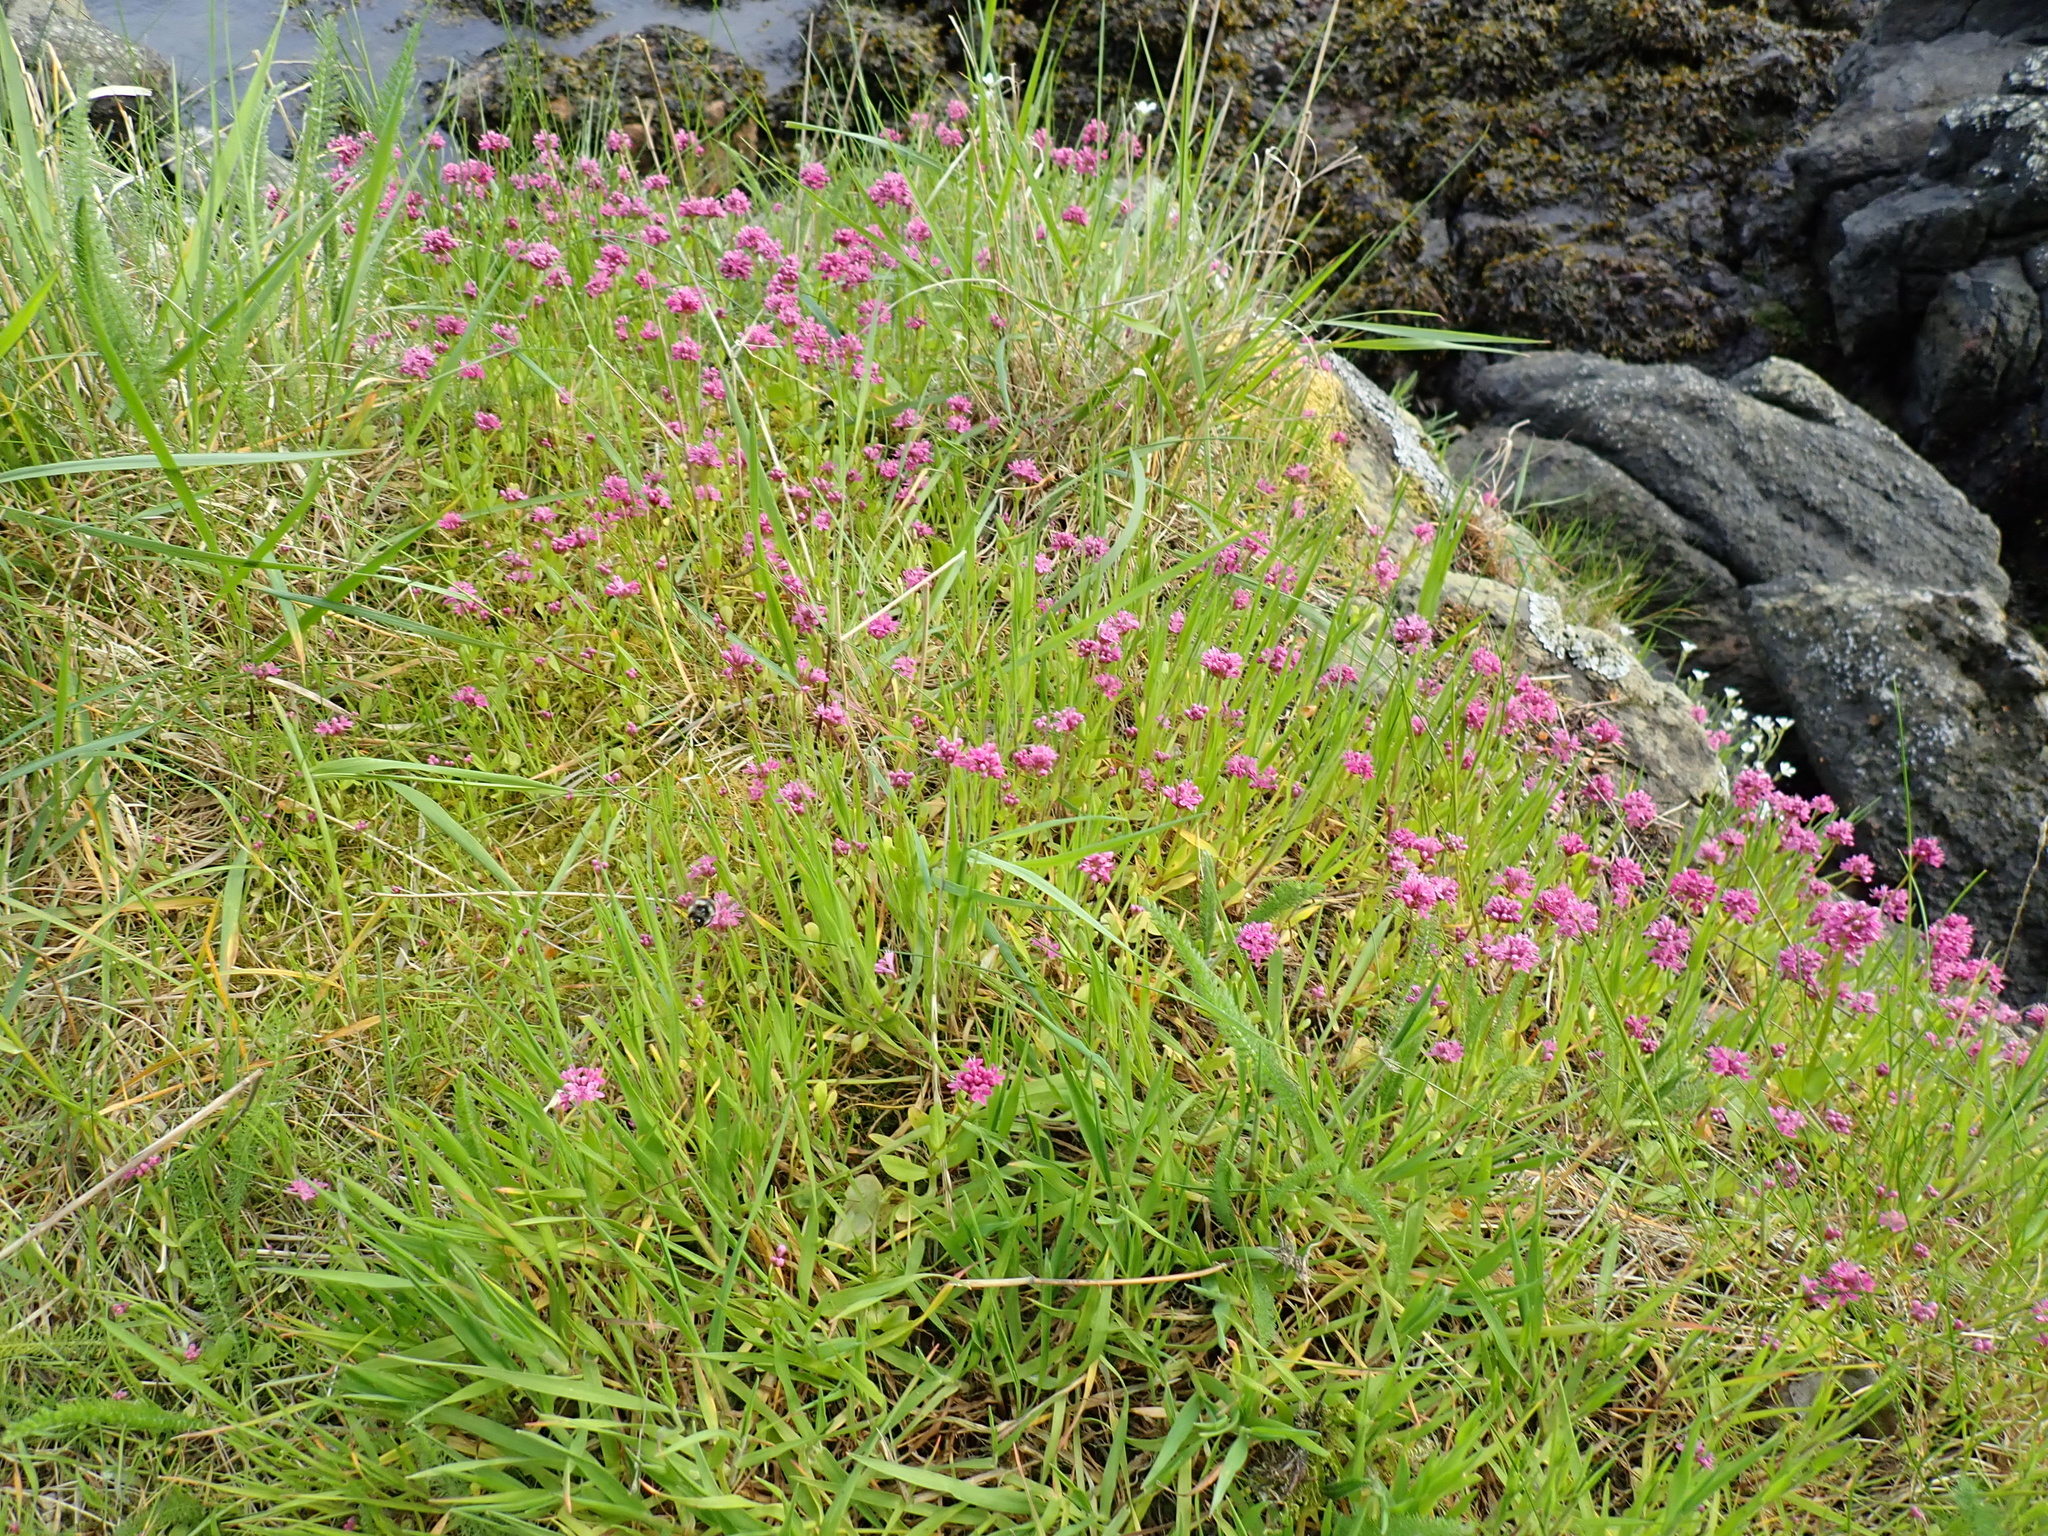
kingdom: Plantae
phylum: Tracheophyta
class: Magnoliopsida
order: Dipsacales
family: Caprifoliaceae
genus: Plectritis
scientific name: Plectritis congesta
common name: Pink plectritis
